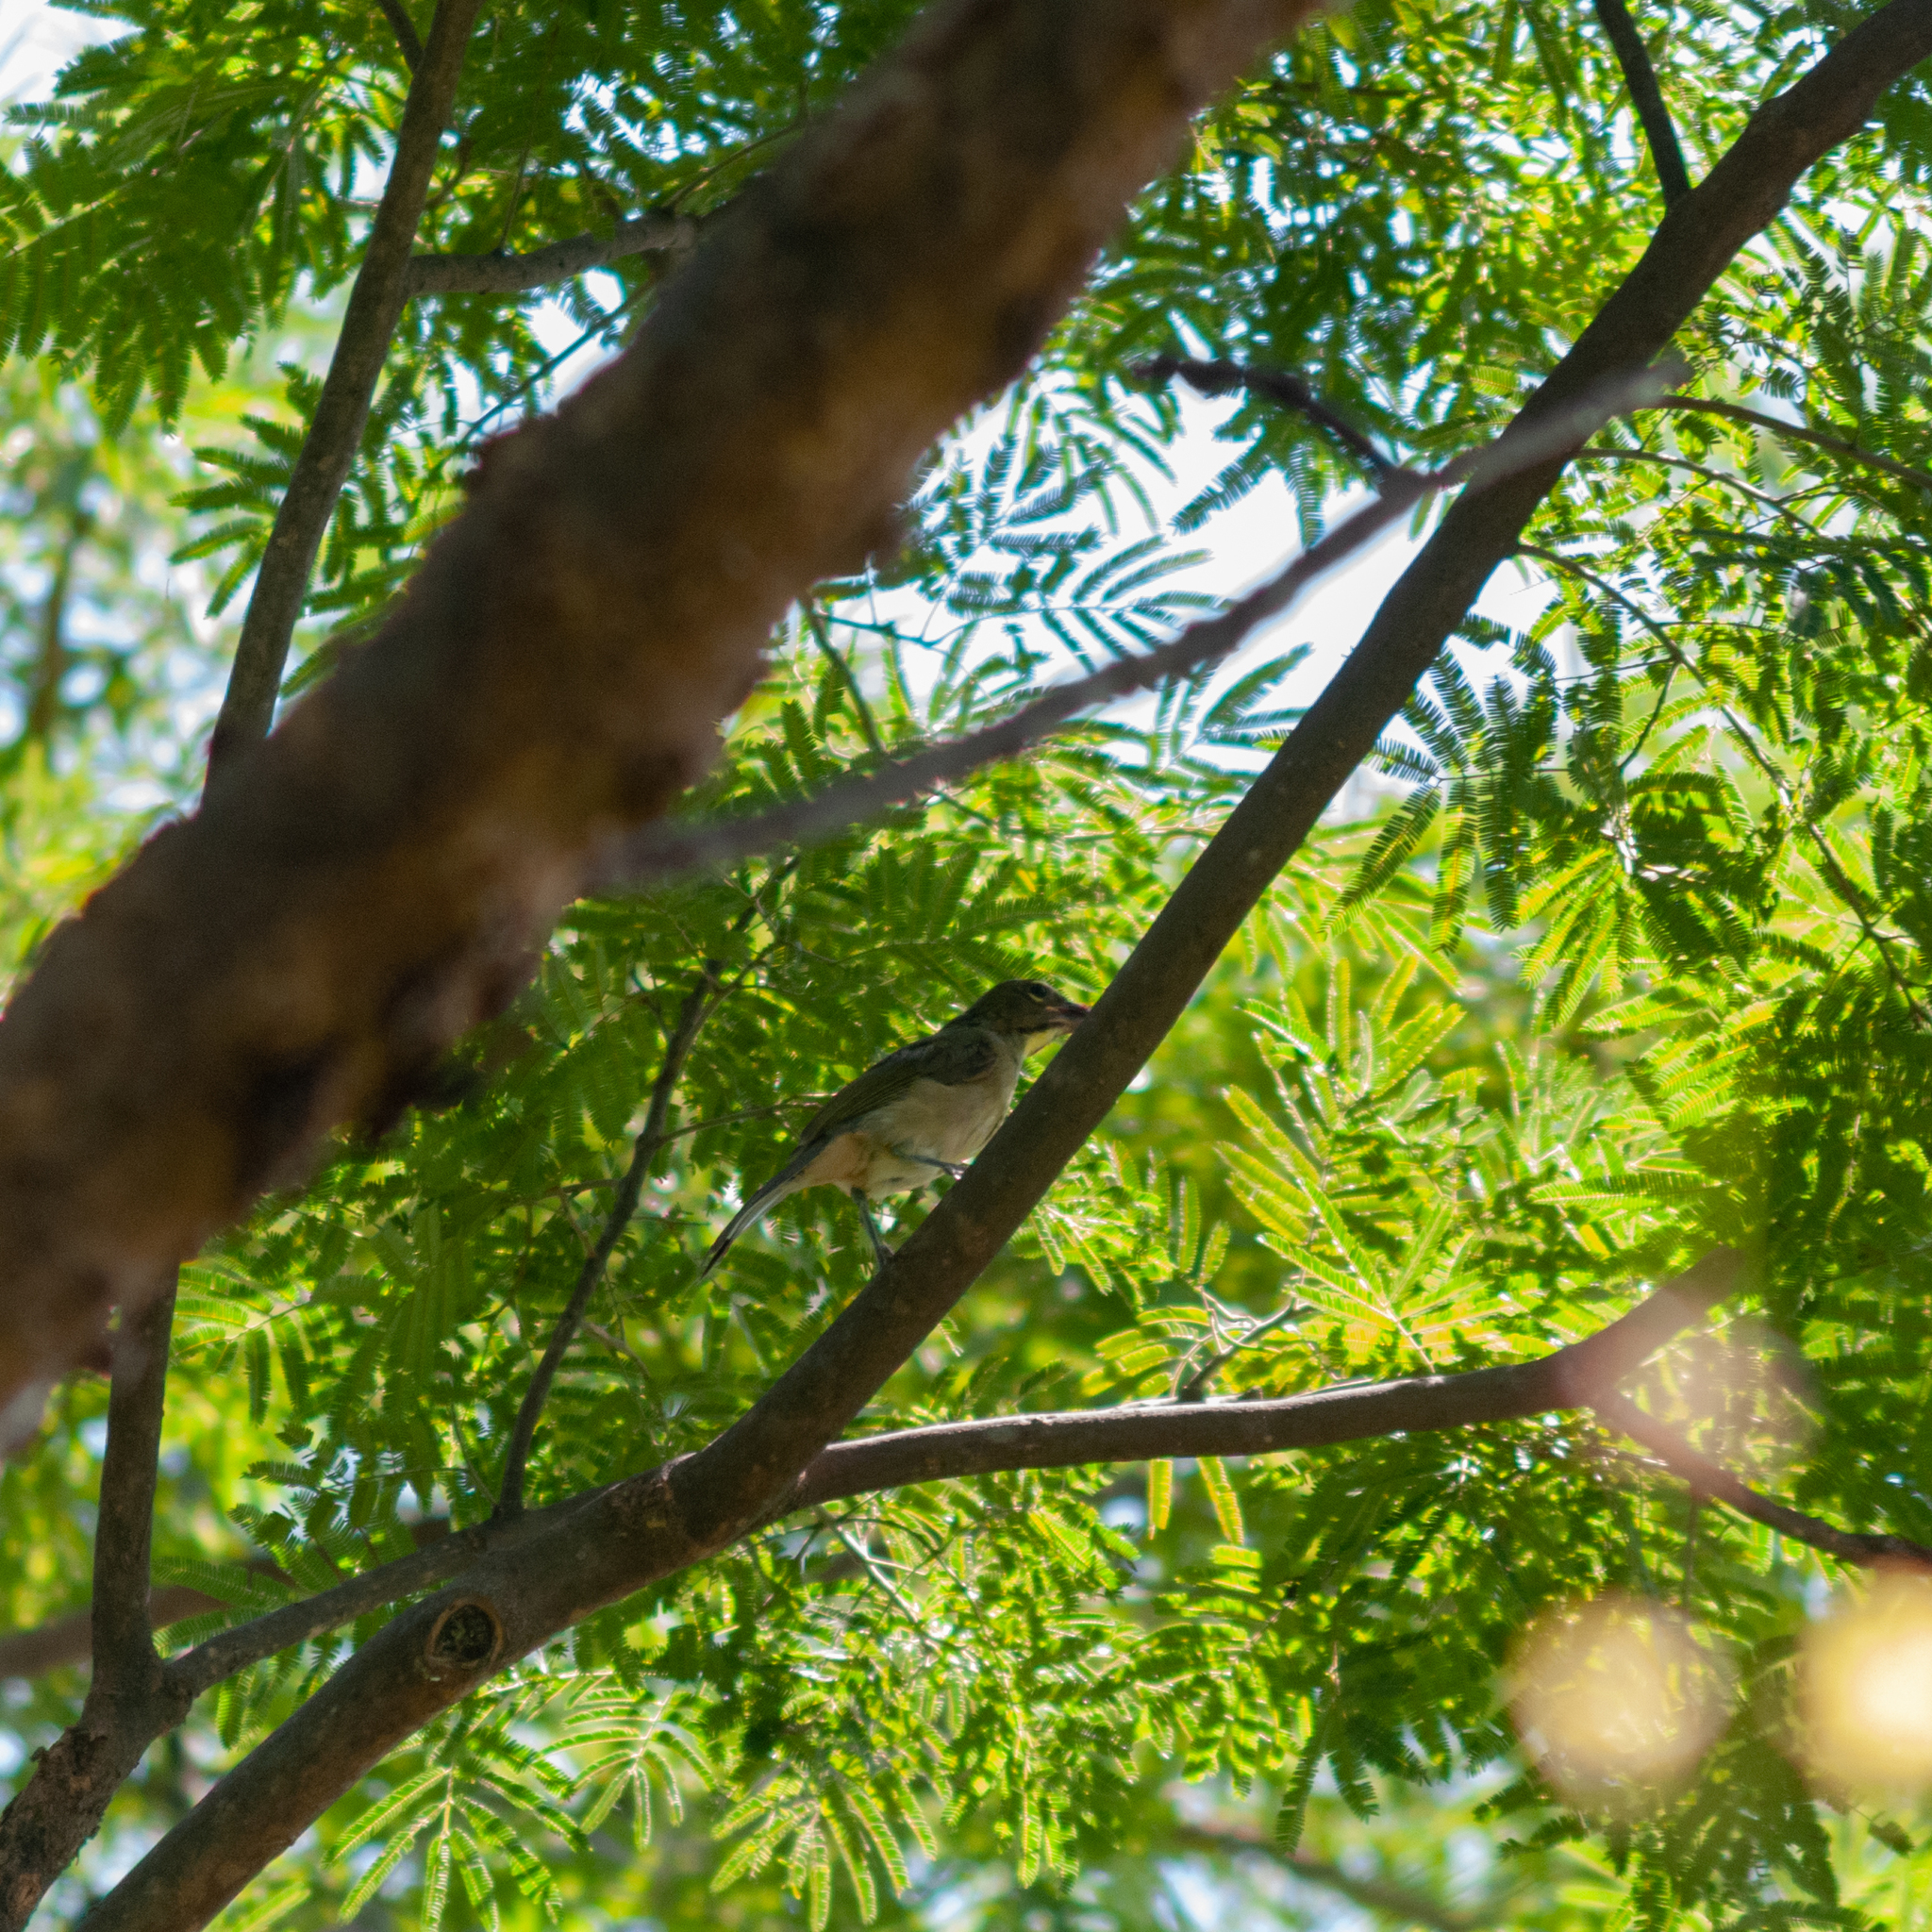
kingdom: Animalia
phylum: Chordata
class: Aves
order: Passeriformes
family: Thraupidae
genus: Saltator
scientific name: Saltator olivascens
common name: Caribbean grey saltator
